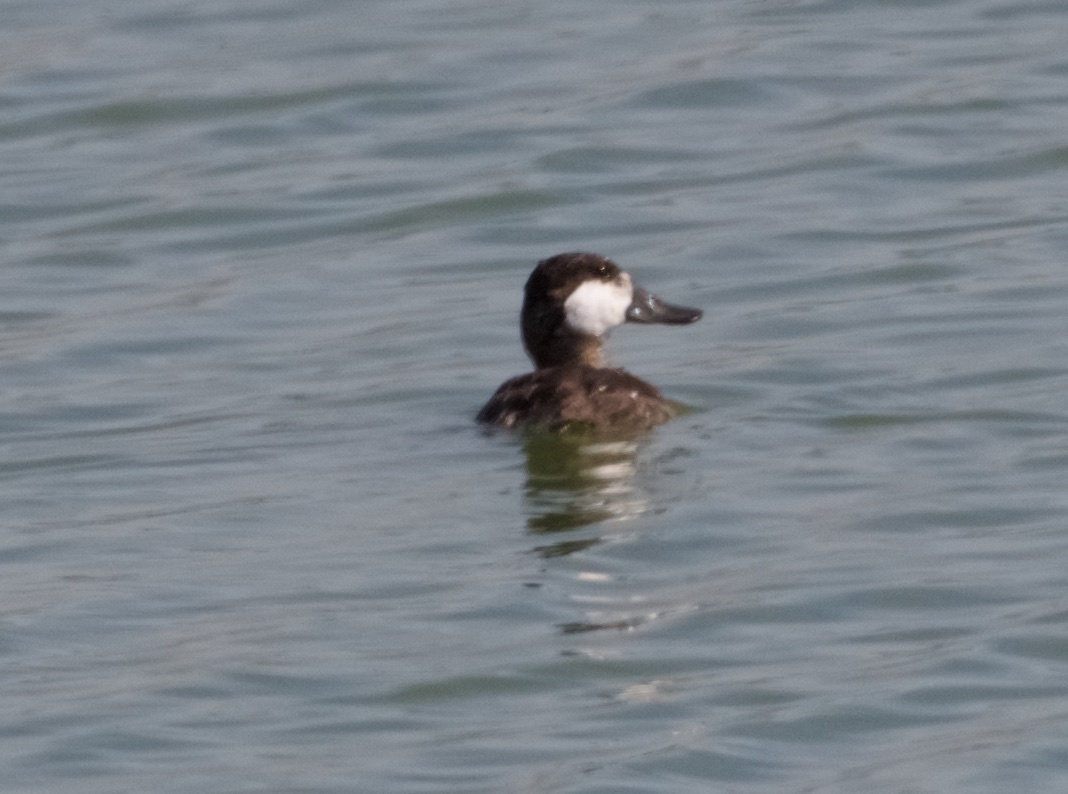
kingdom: Animalia
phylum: Chordata
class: Aves
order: Anseriformes
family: Anatidae
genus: Oxyura
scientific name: Oxyura jamaicensis
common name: Ruddy duck
